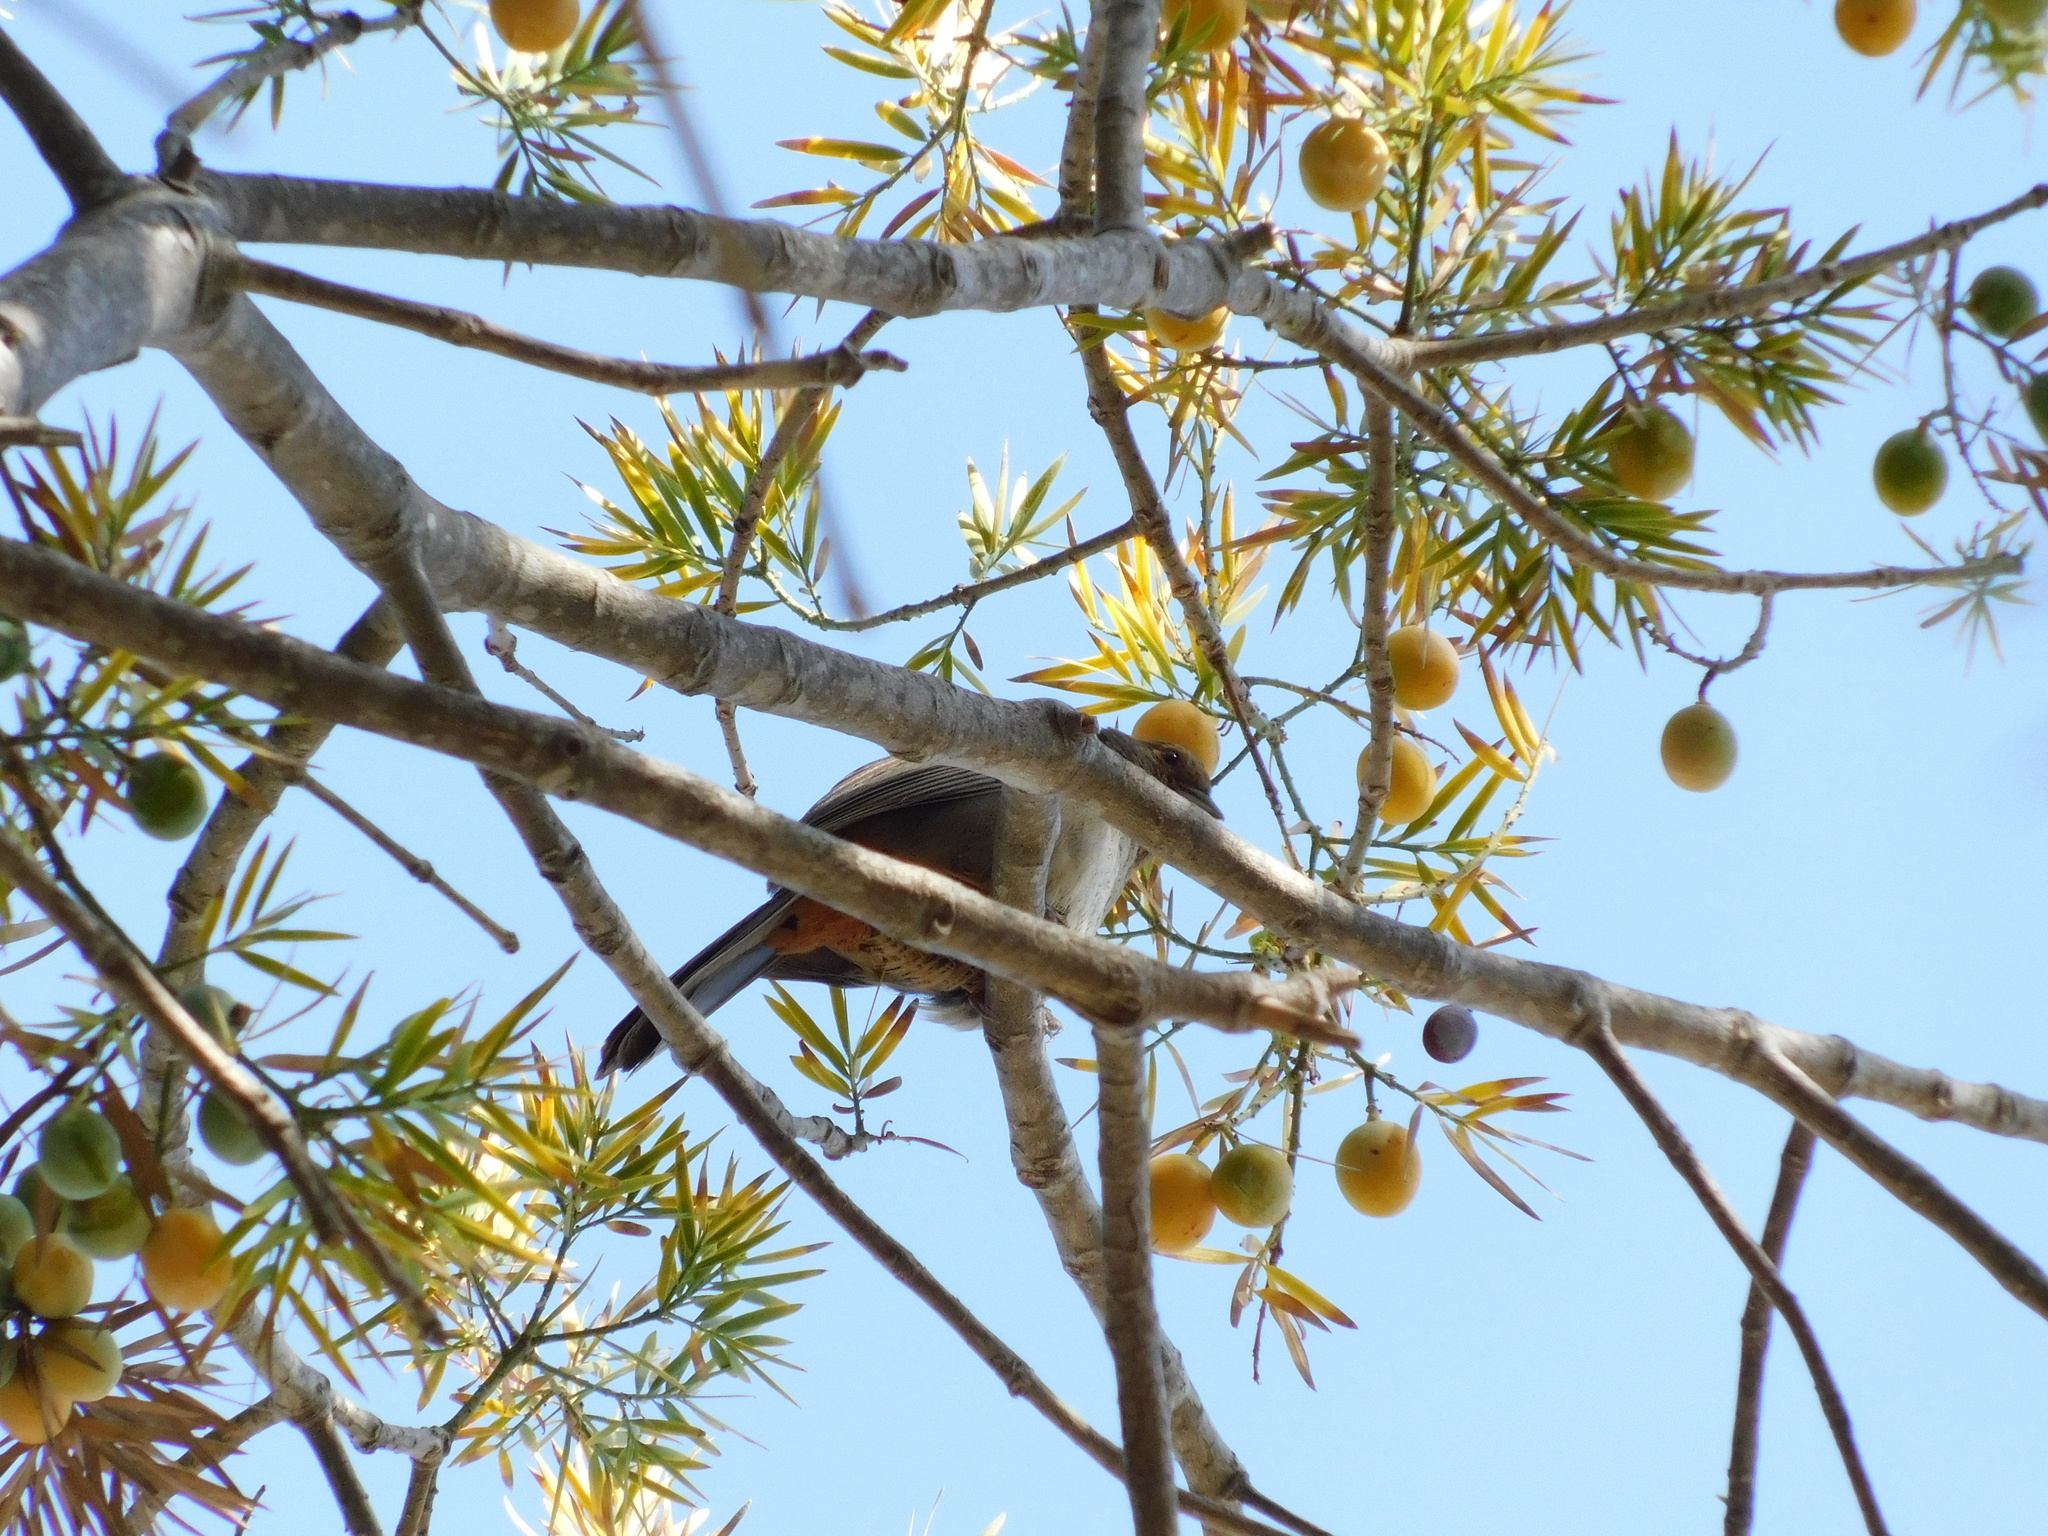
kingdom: Animalia
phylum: Chordata
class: Aves
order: Passeriformes
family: Passerellidae
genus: Melozone
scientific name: Melozone crissalis
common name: California towhee
